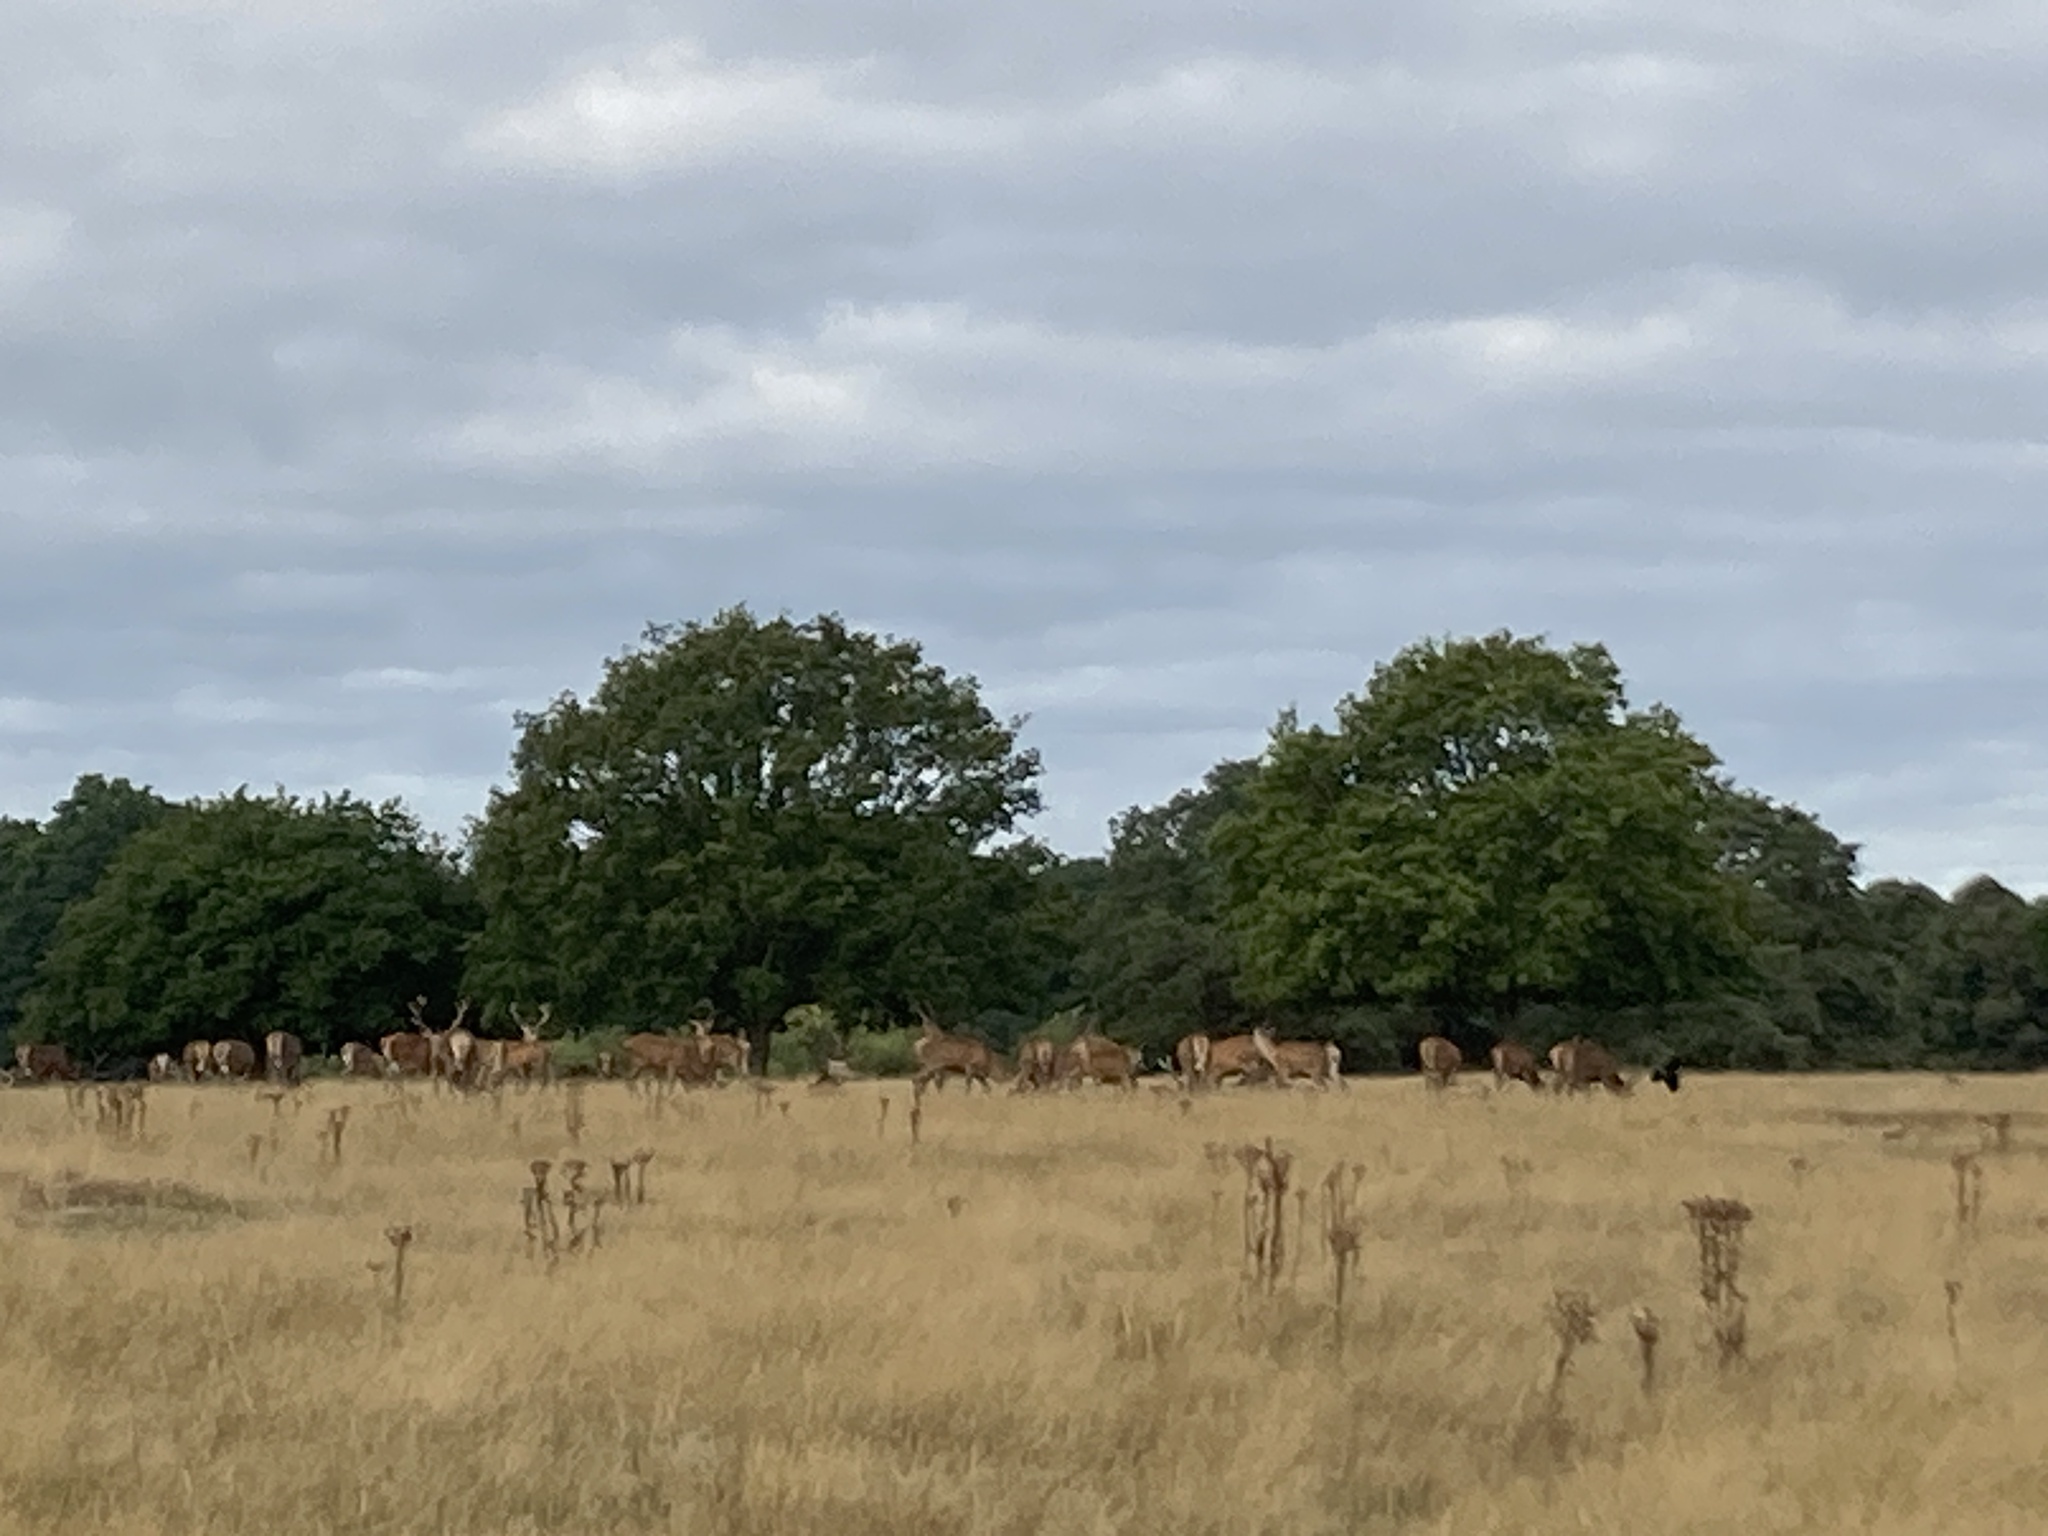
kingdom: Animalia
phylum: Chordata
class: Mammalia
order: Artiodactyla
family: Cervidae
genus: Cervus
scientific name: Cervus elaphus
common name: Red deer
